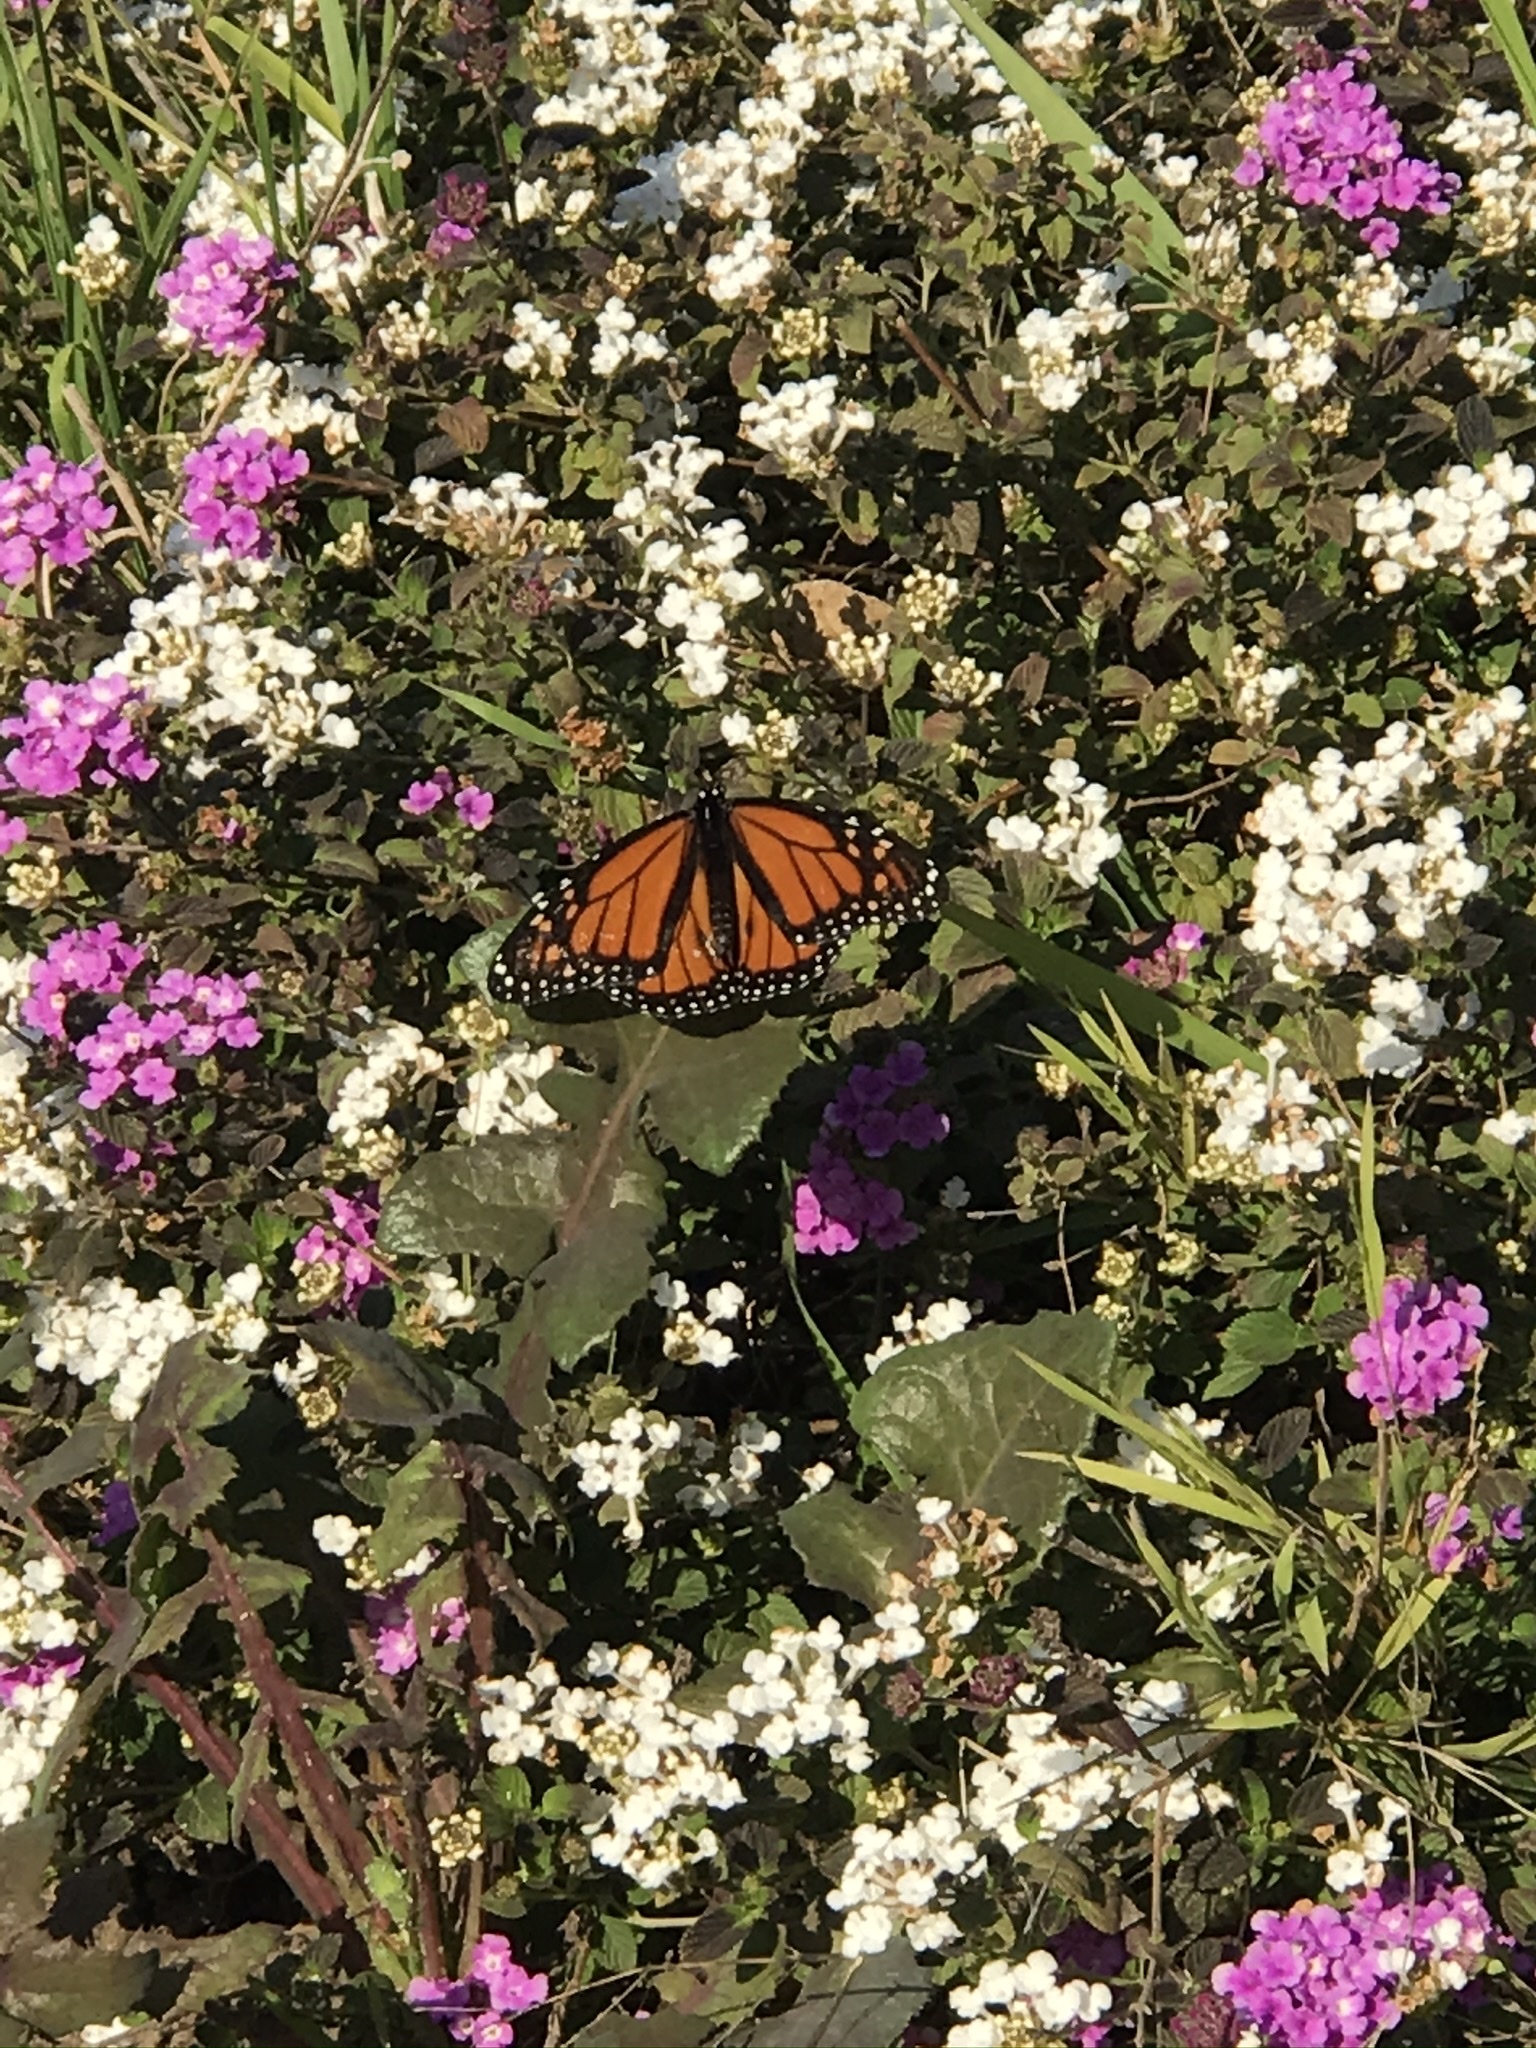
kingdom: Animalia
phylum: Arthropoda
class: Insecta
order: Lepidoptera
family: Nymphalidae
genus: Danaus
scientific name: Danaus plexippus
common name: Monarch
